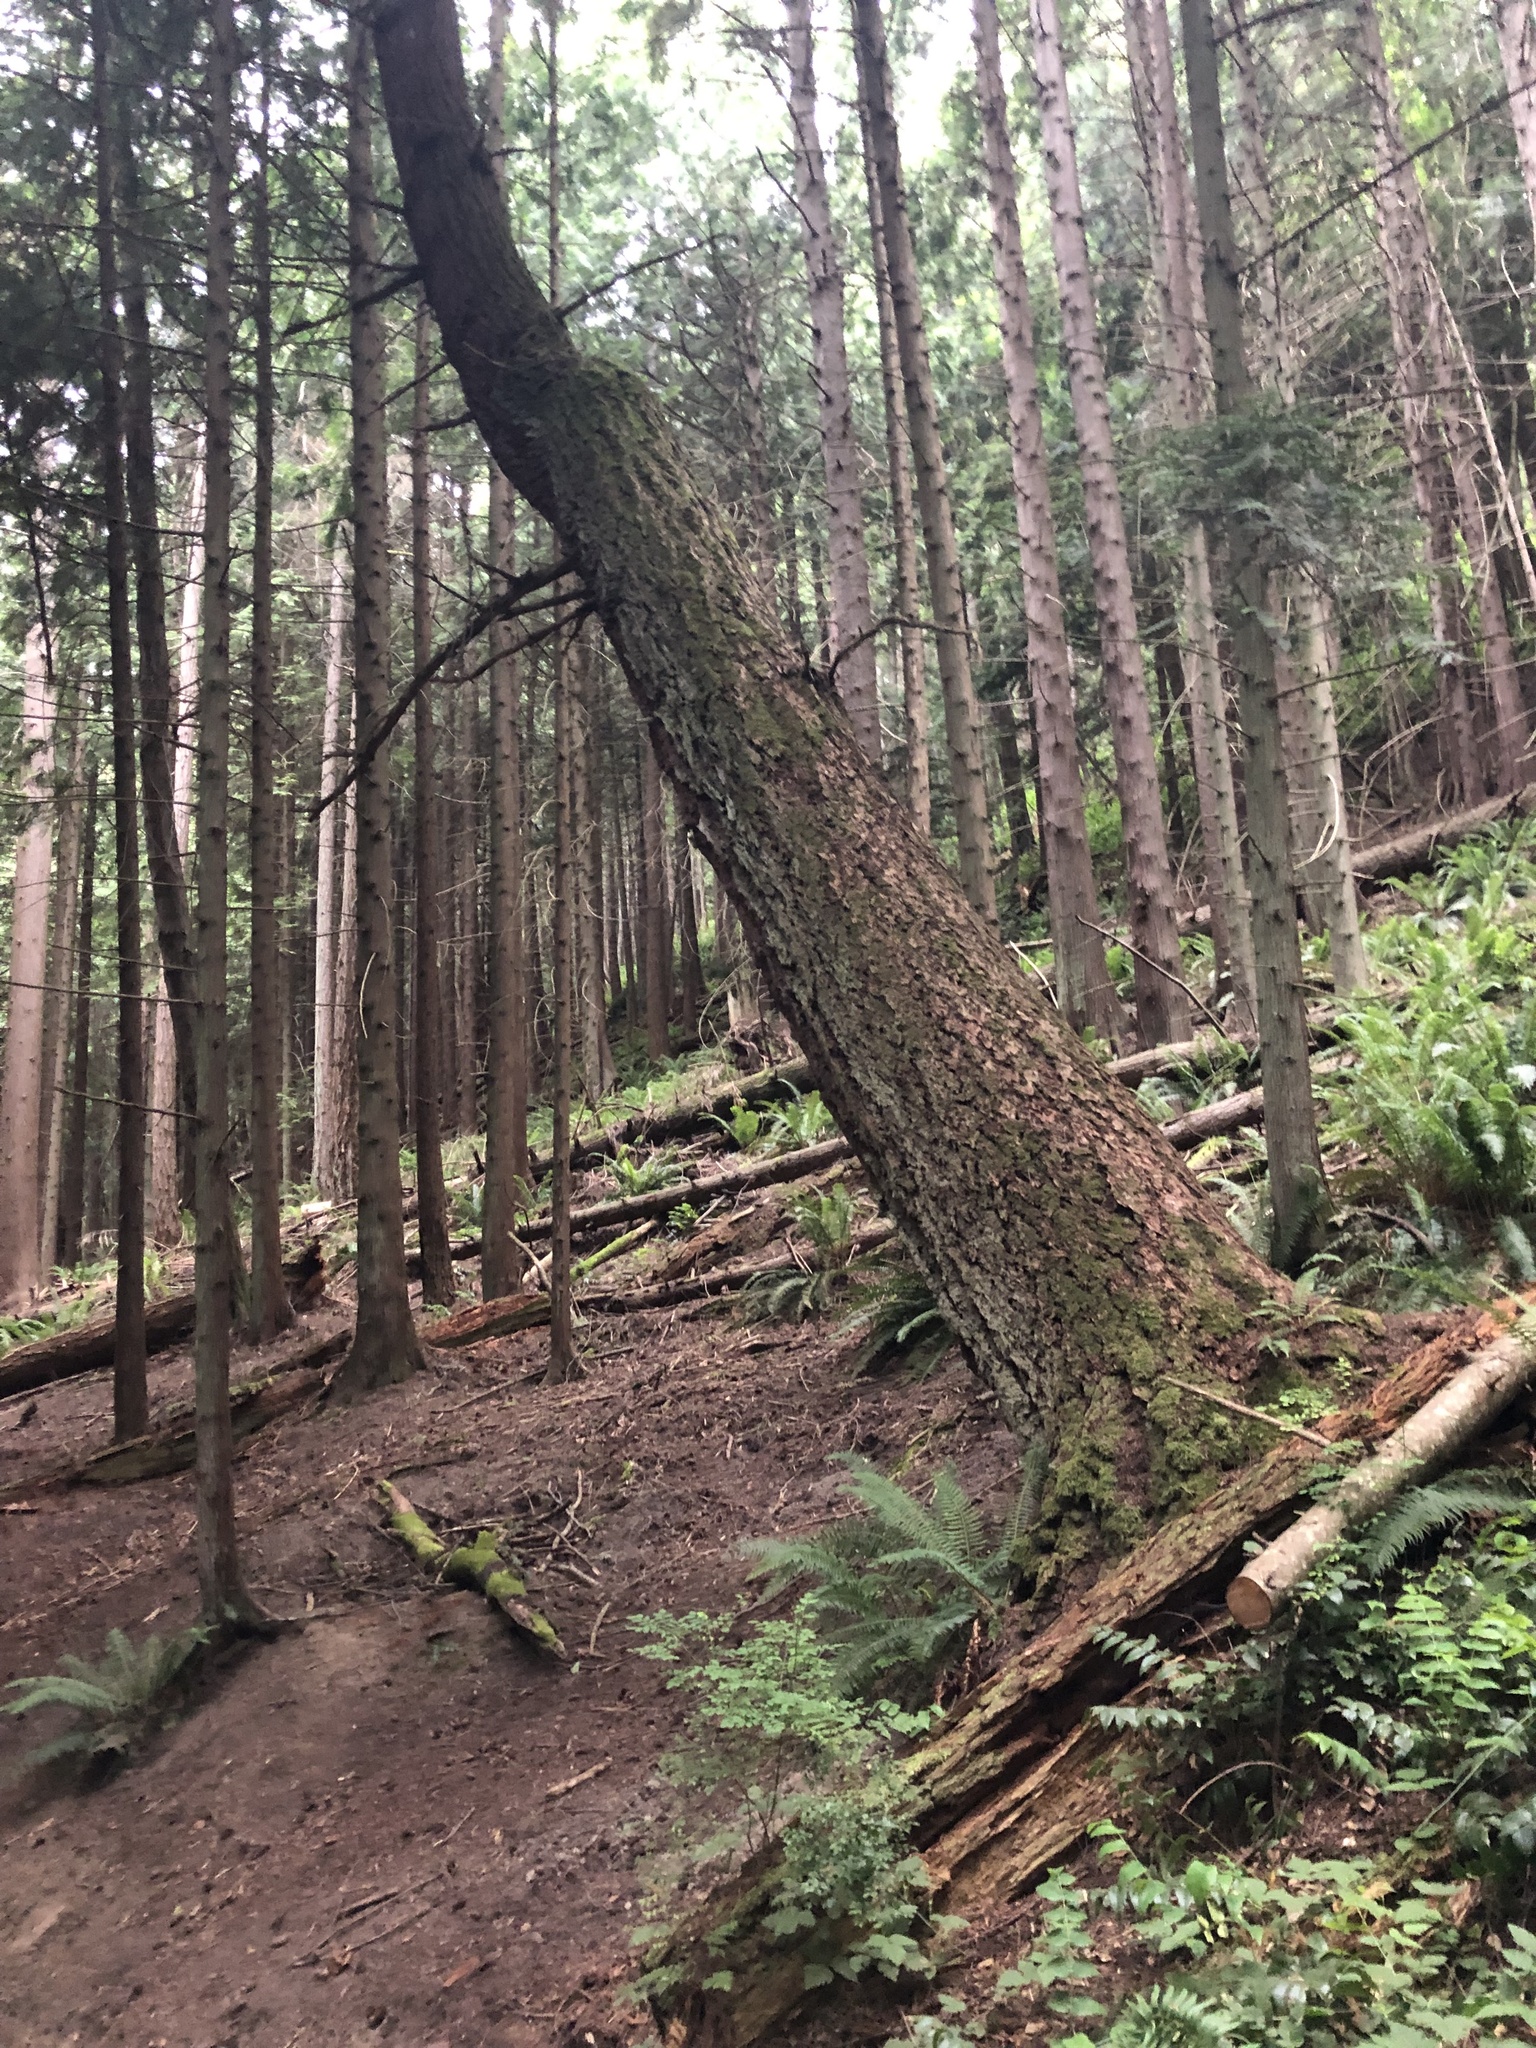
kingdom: Plantae
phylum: Tracheophyta
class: Pinopsida
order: Pinales
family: Pinaceae
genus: Pseudotsuga
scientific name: Pseudotsuga menziesii
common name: Douglas fir
